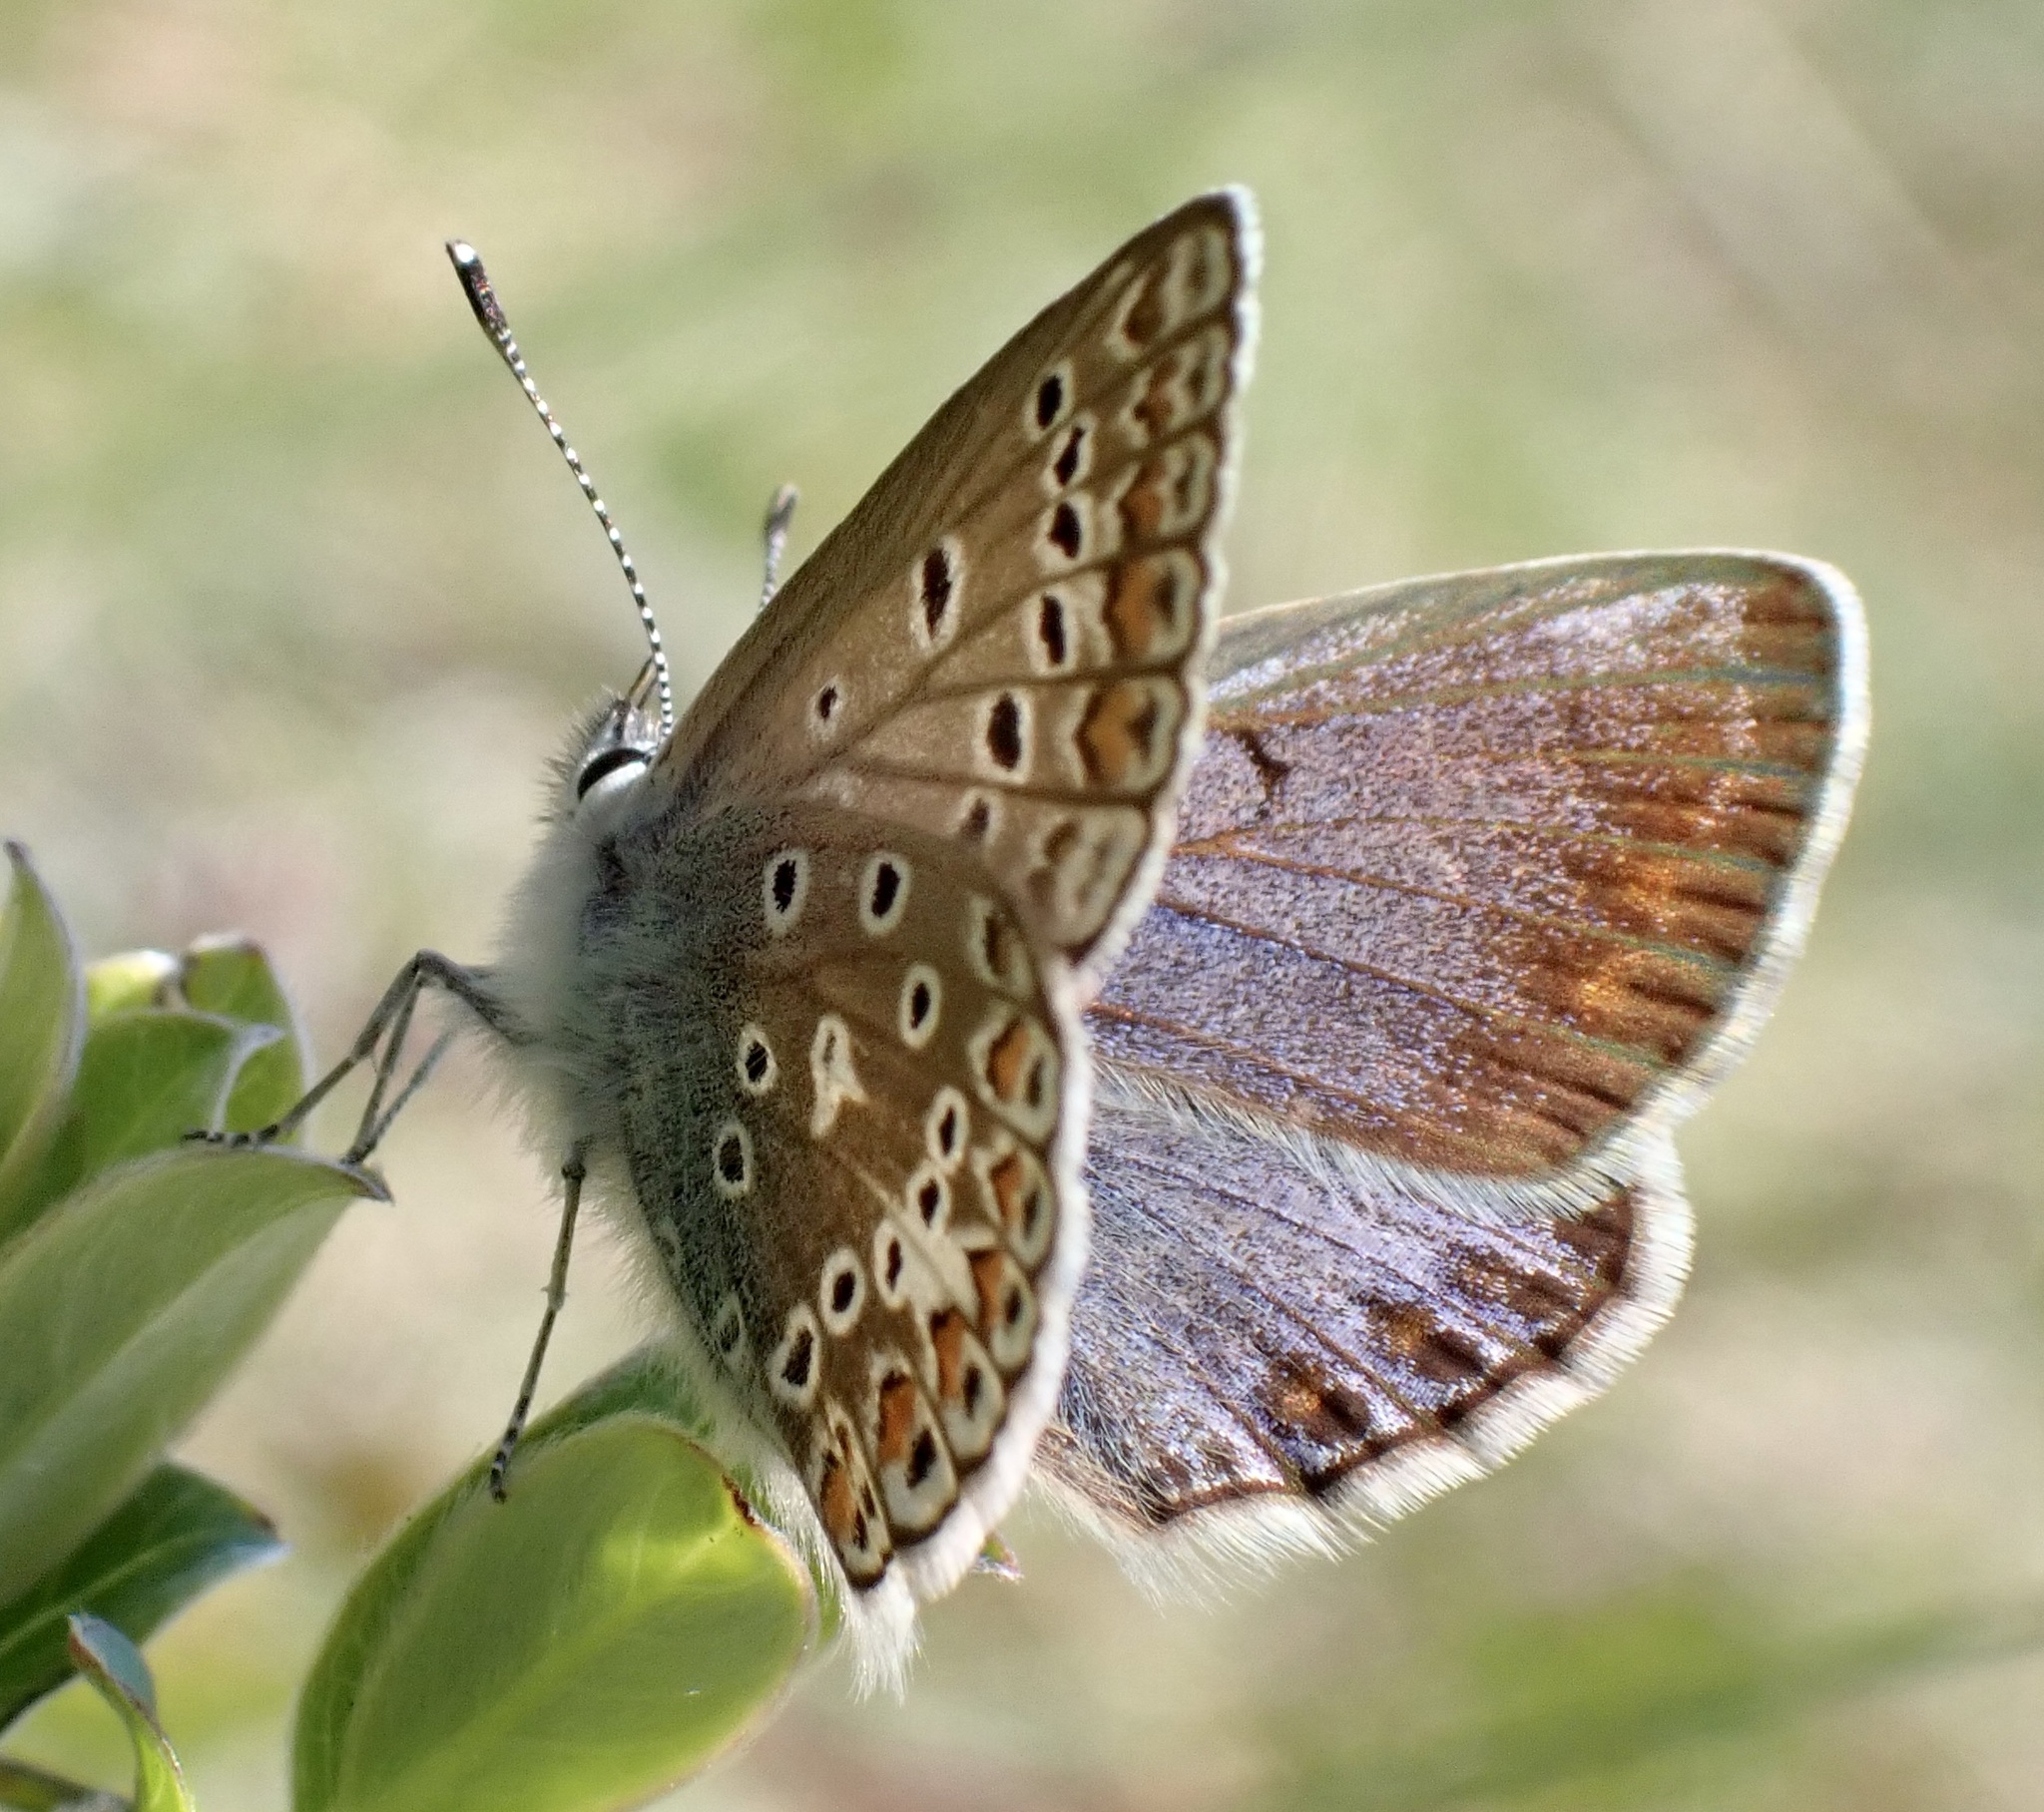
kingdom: Animalia
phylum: Arthropoda
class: Insecta
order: Lepidoptera
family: Lycaenidae
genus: Polyommatus
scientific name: Polyommatus icarus
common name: Common blue
